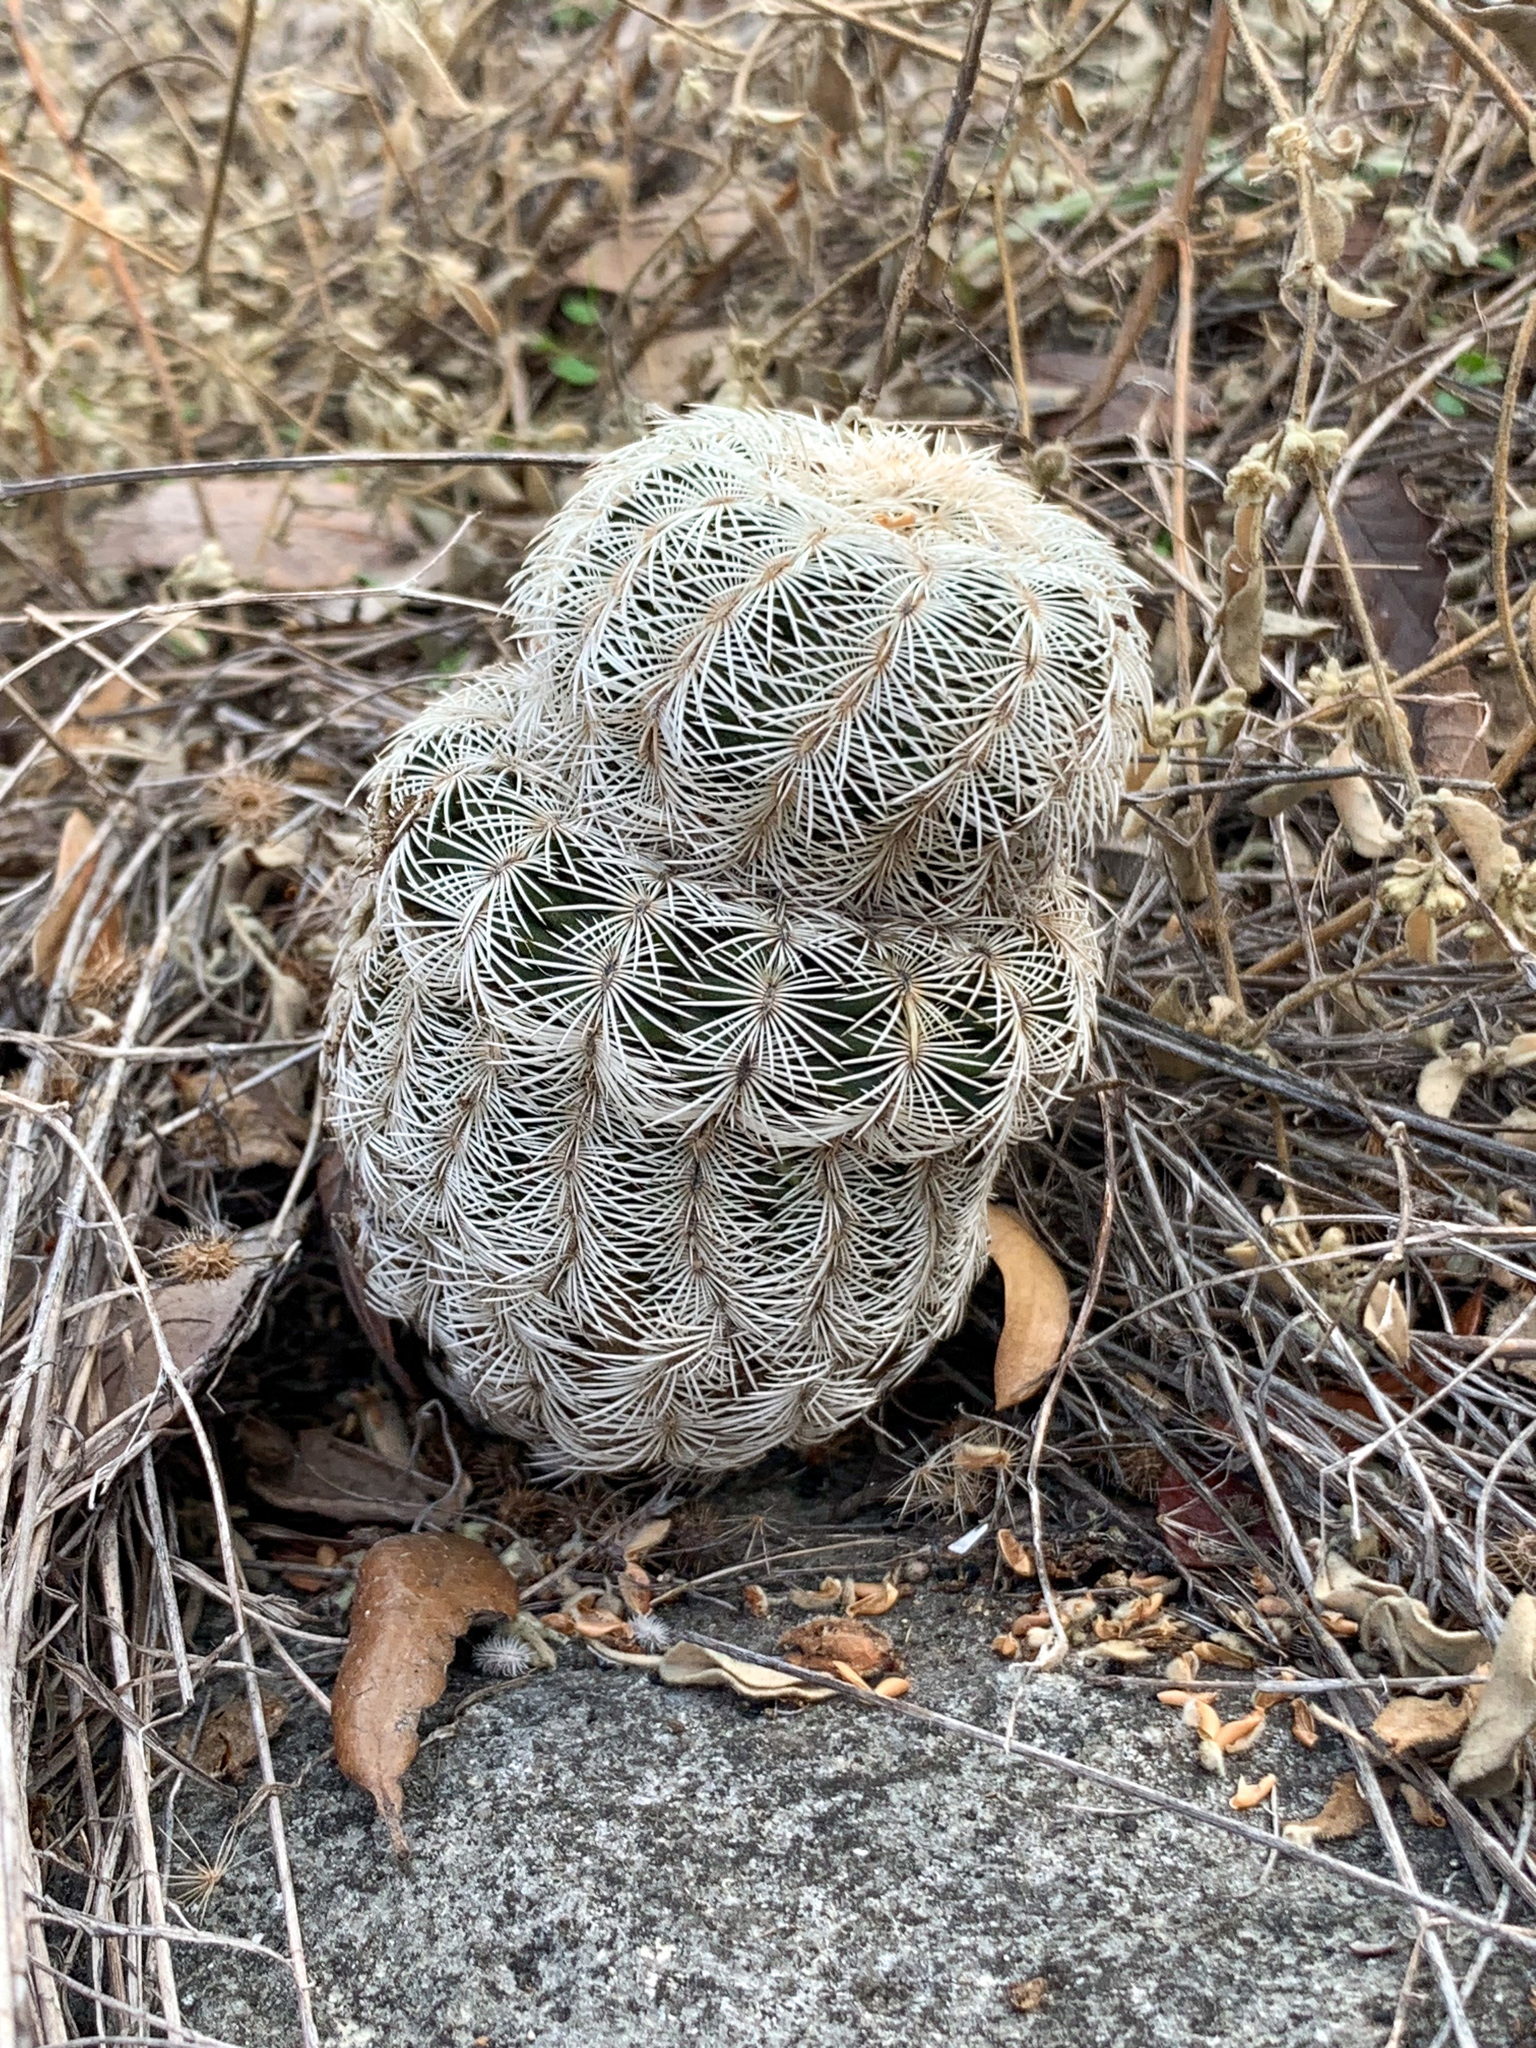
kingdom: Plantae
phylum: Tracheophyta
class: Magnoliopsida
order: Caryophyllales
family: Cactaceae
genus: Echinocereus
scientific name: Echinocereus reichenbachii
